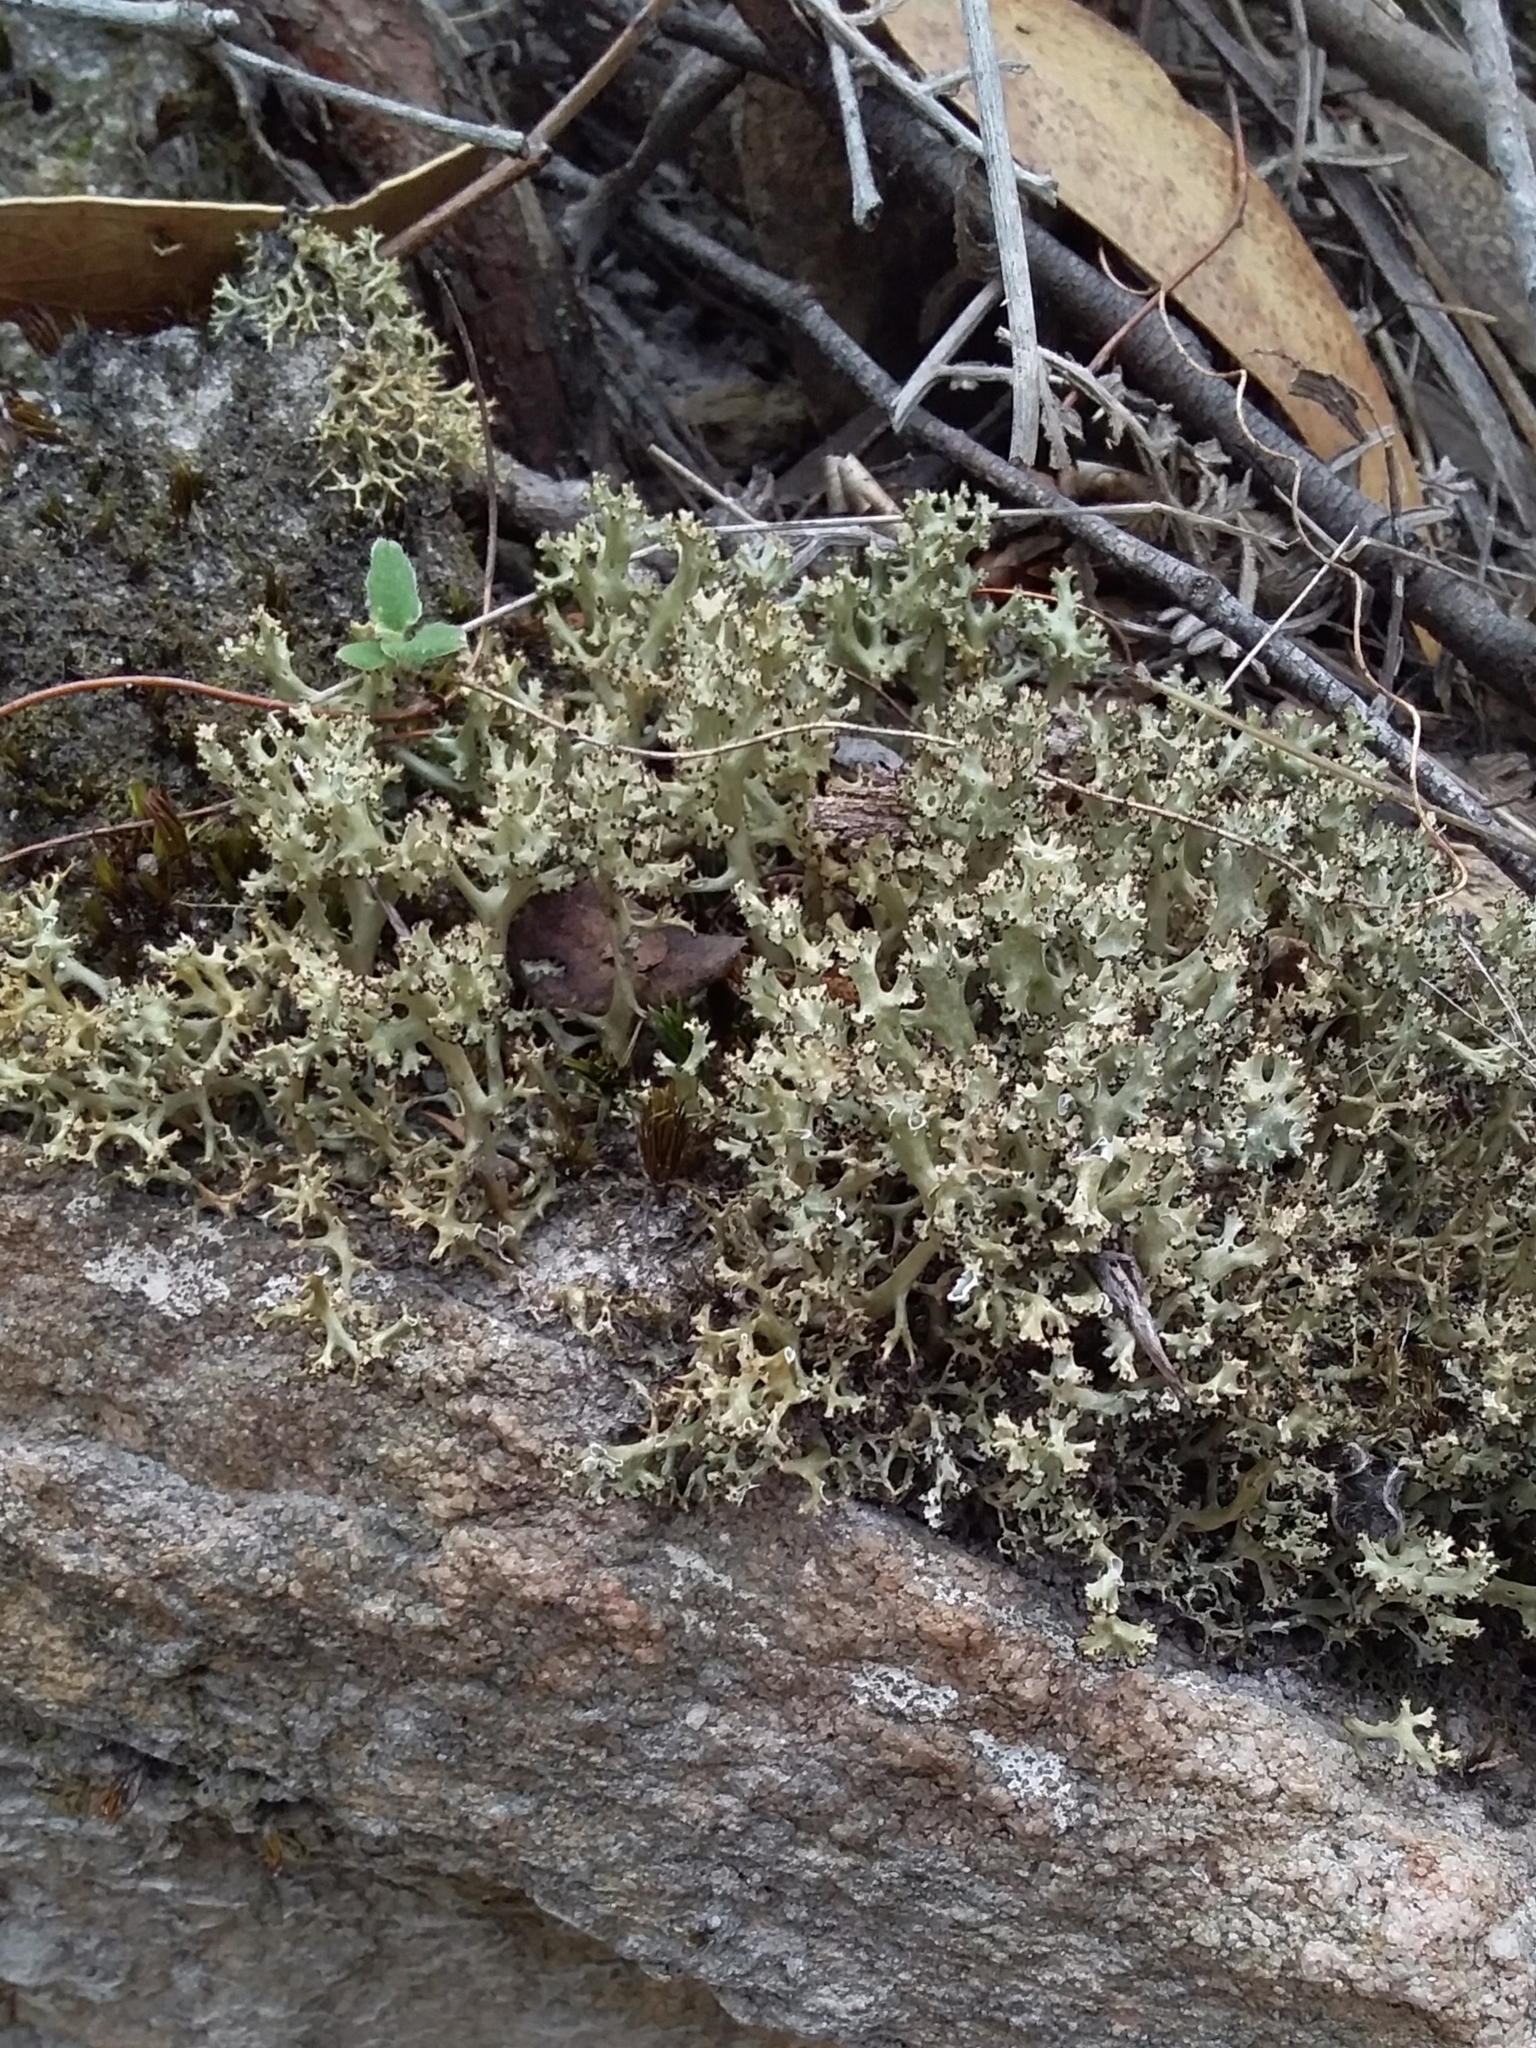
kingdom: Fungi
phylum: Ascomycota
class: Lecanoromycetes
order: Lecanorales
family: Cladoniaceae
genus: Cladia
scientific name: Cladia aggregata
